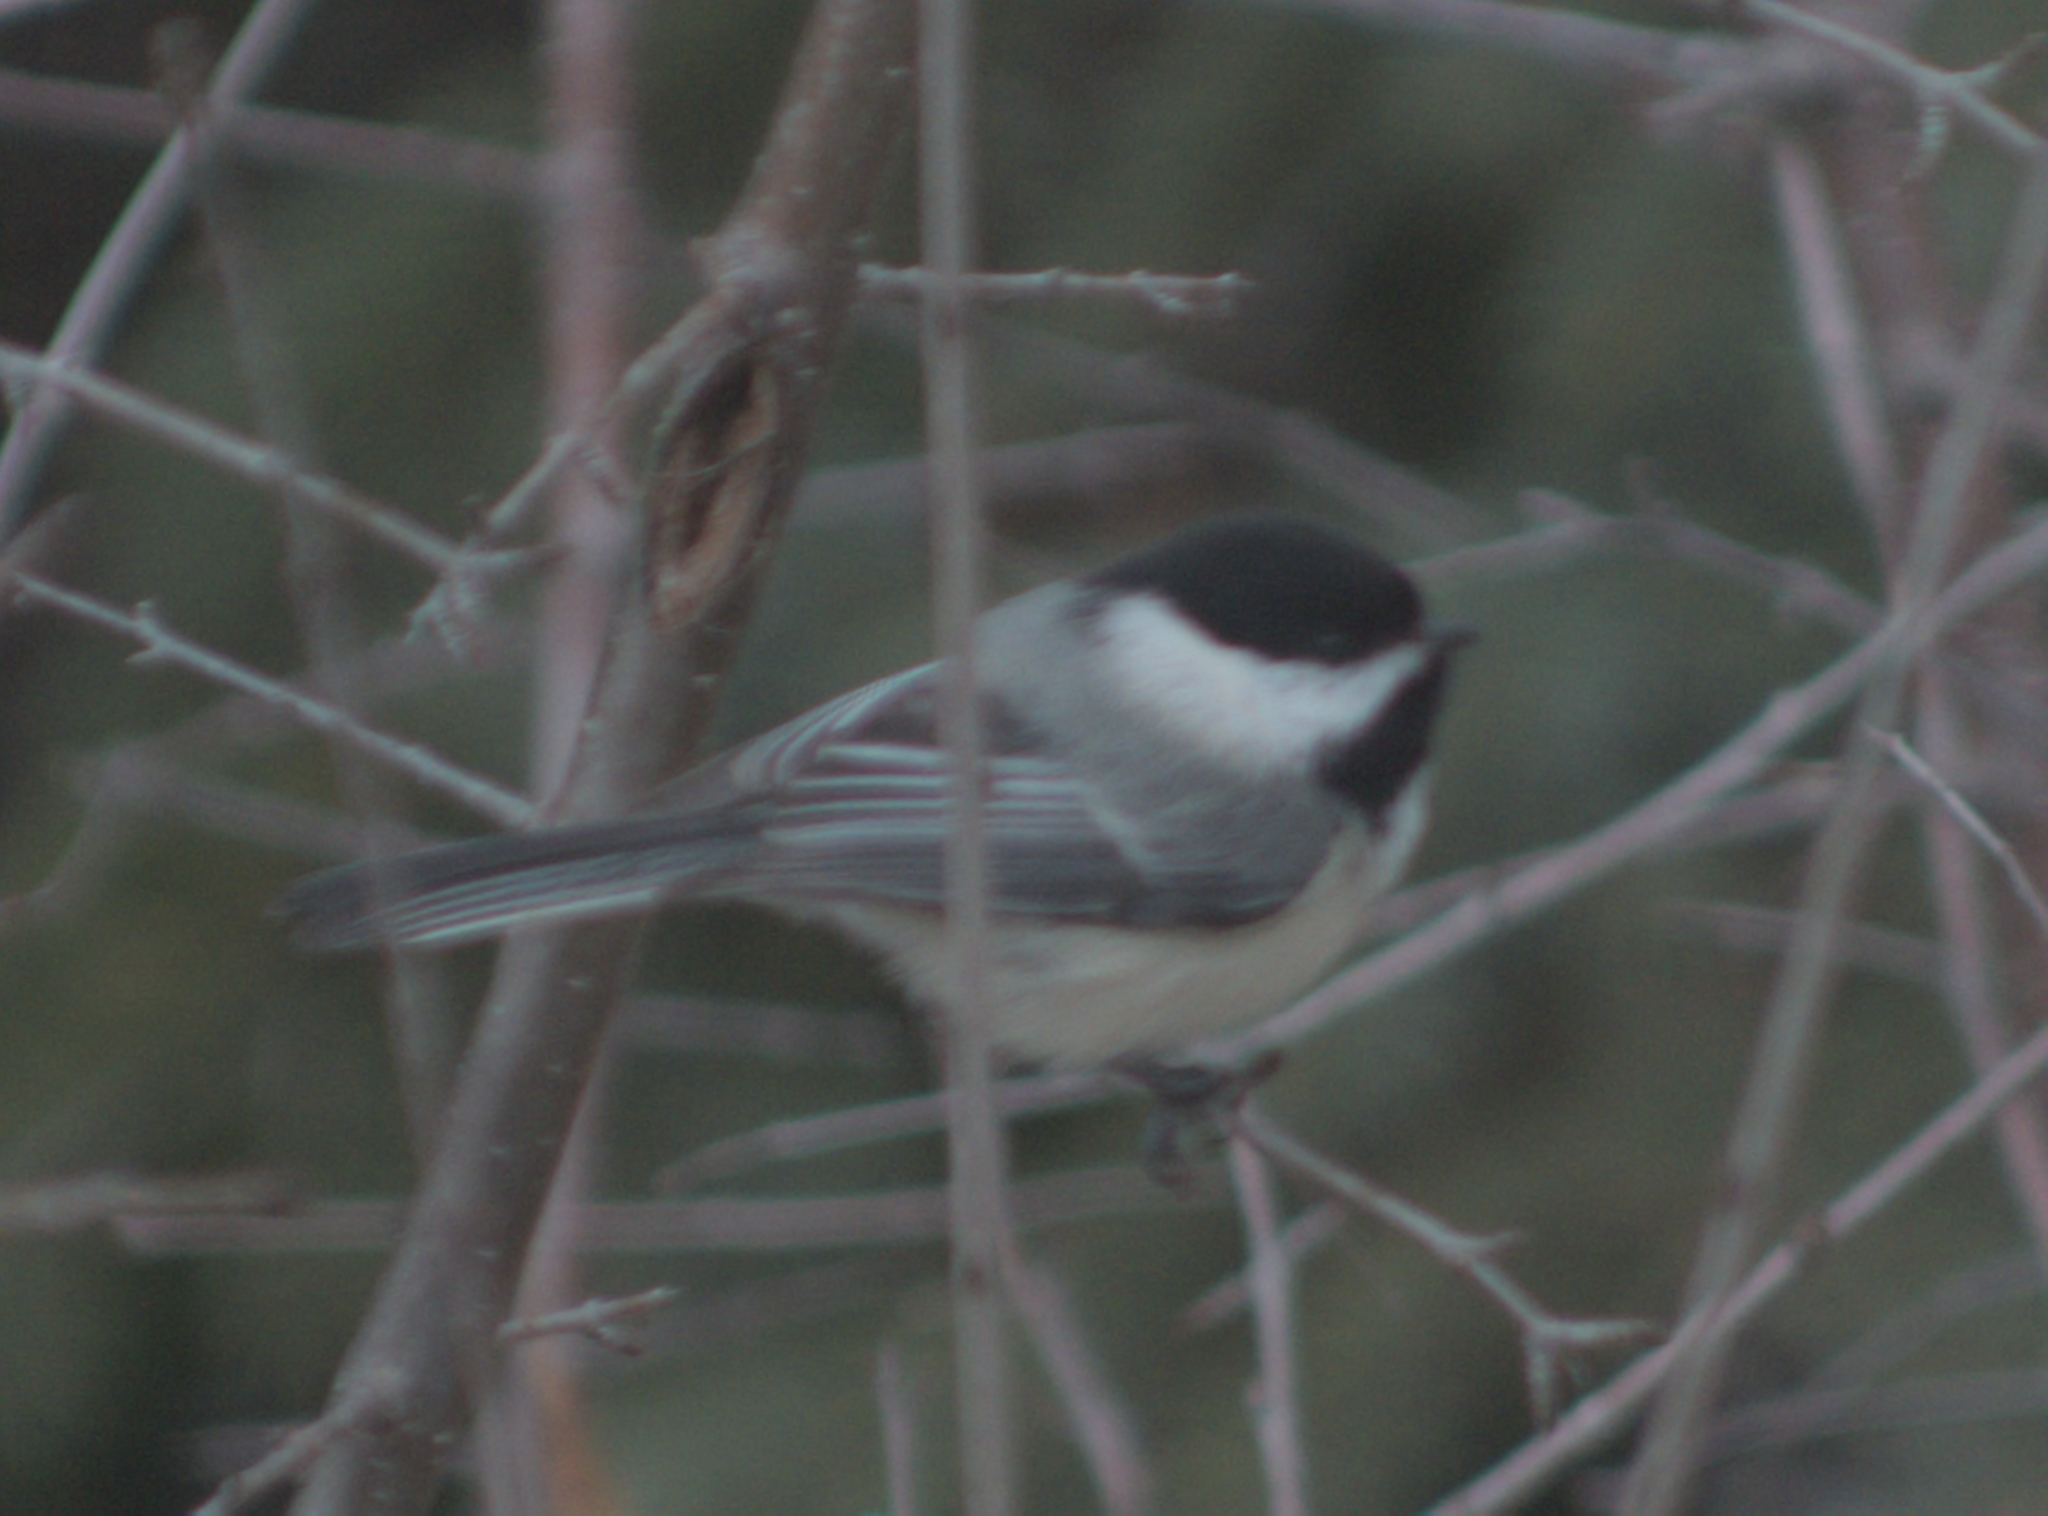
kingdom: Animalia
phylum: Chordata
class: Aves
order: Passeriformes
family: Paridae
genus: Poecile
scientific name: Poecile atricapillus
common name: Black-capped chickadee
